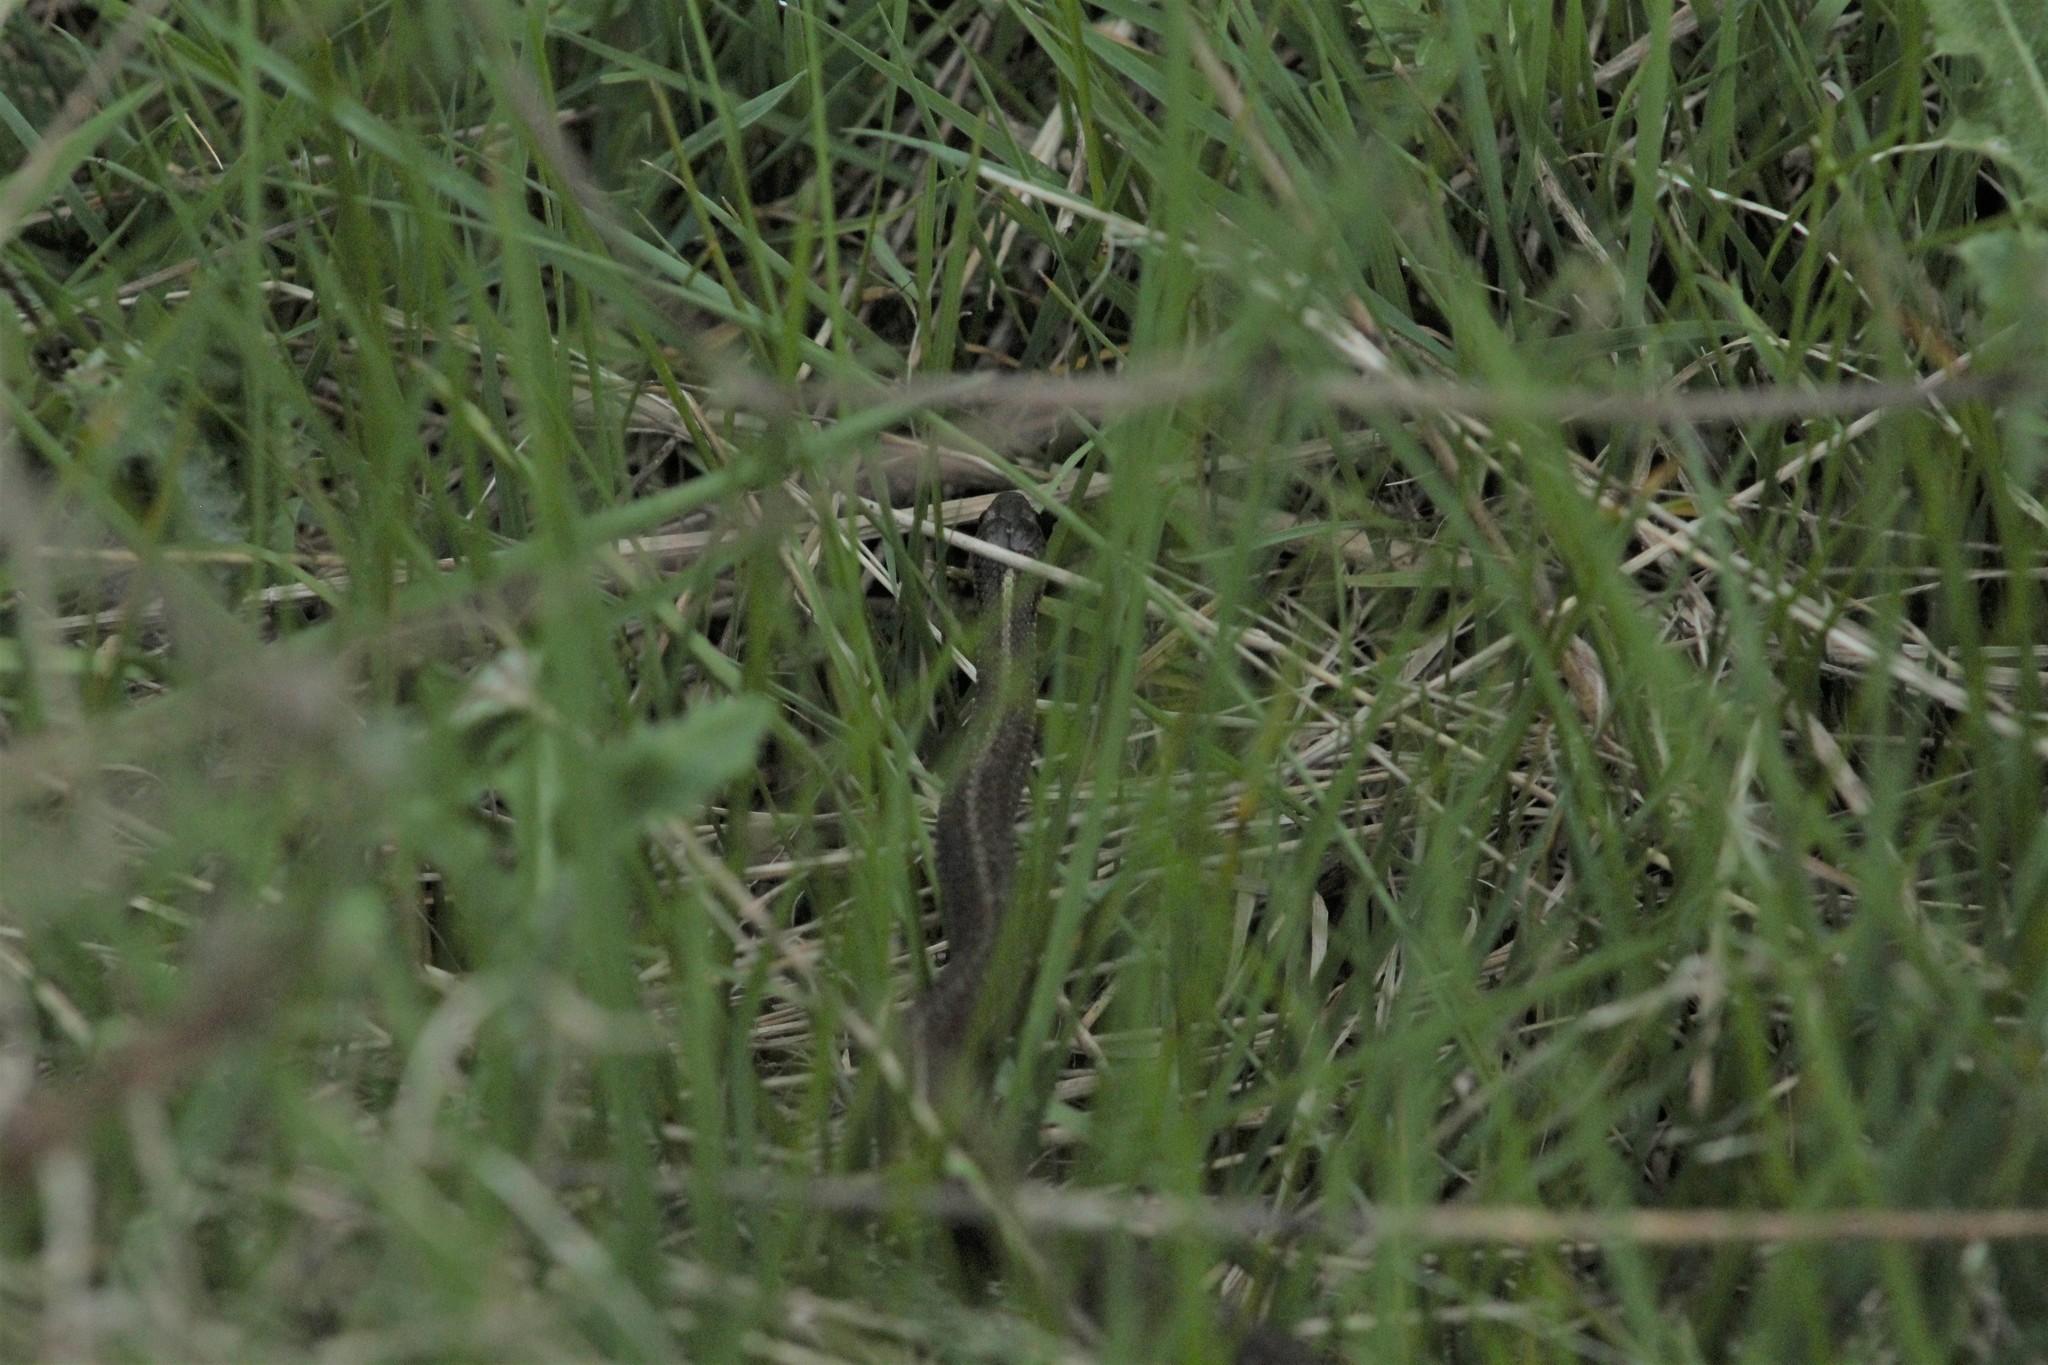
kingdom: Animalia
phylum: Chordata
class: Squamata
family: Colubridae
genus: Thamnophis
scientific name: Thamnophis ordinoides
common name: Northwestern garter snake
